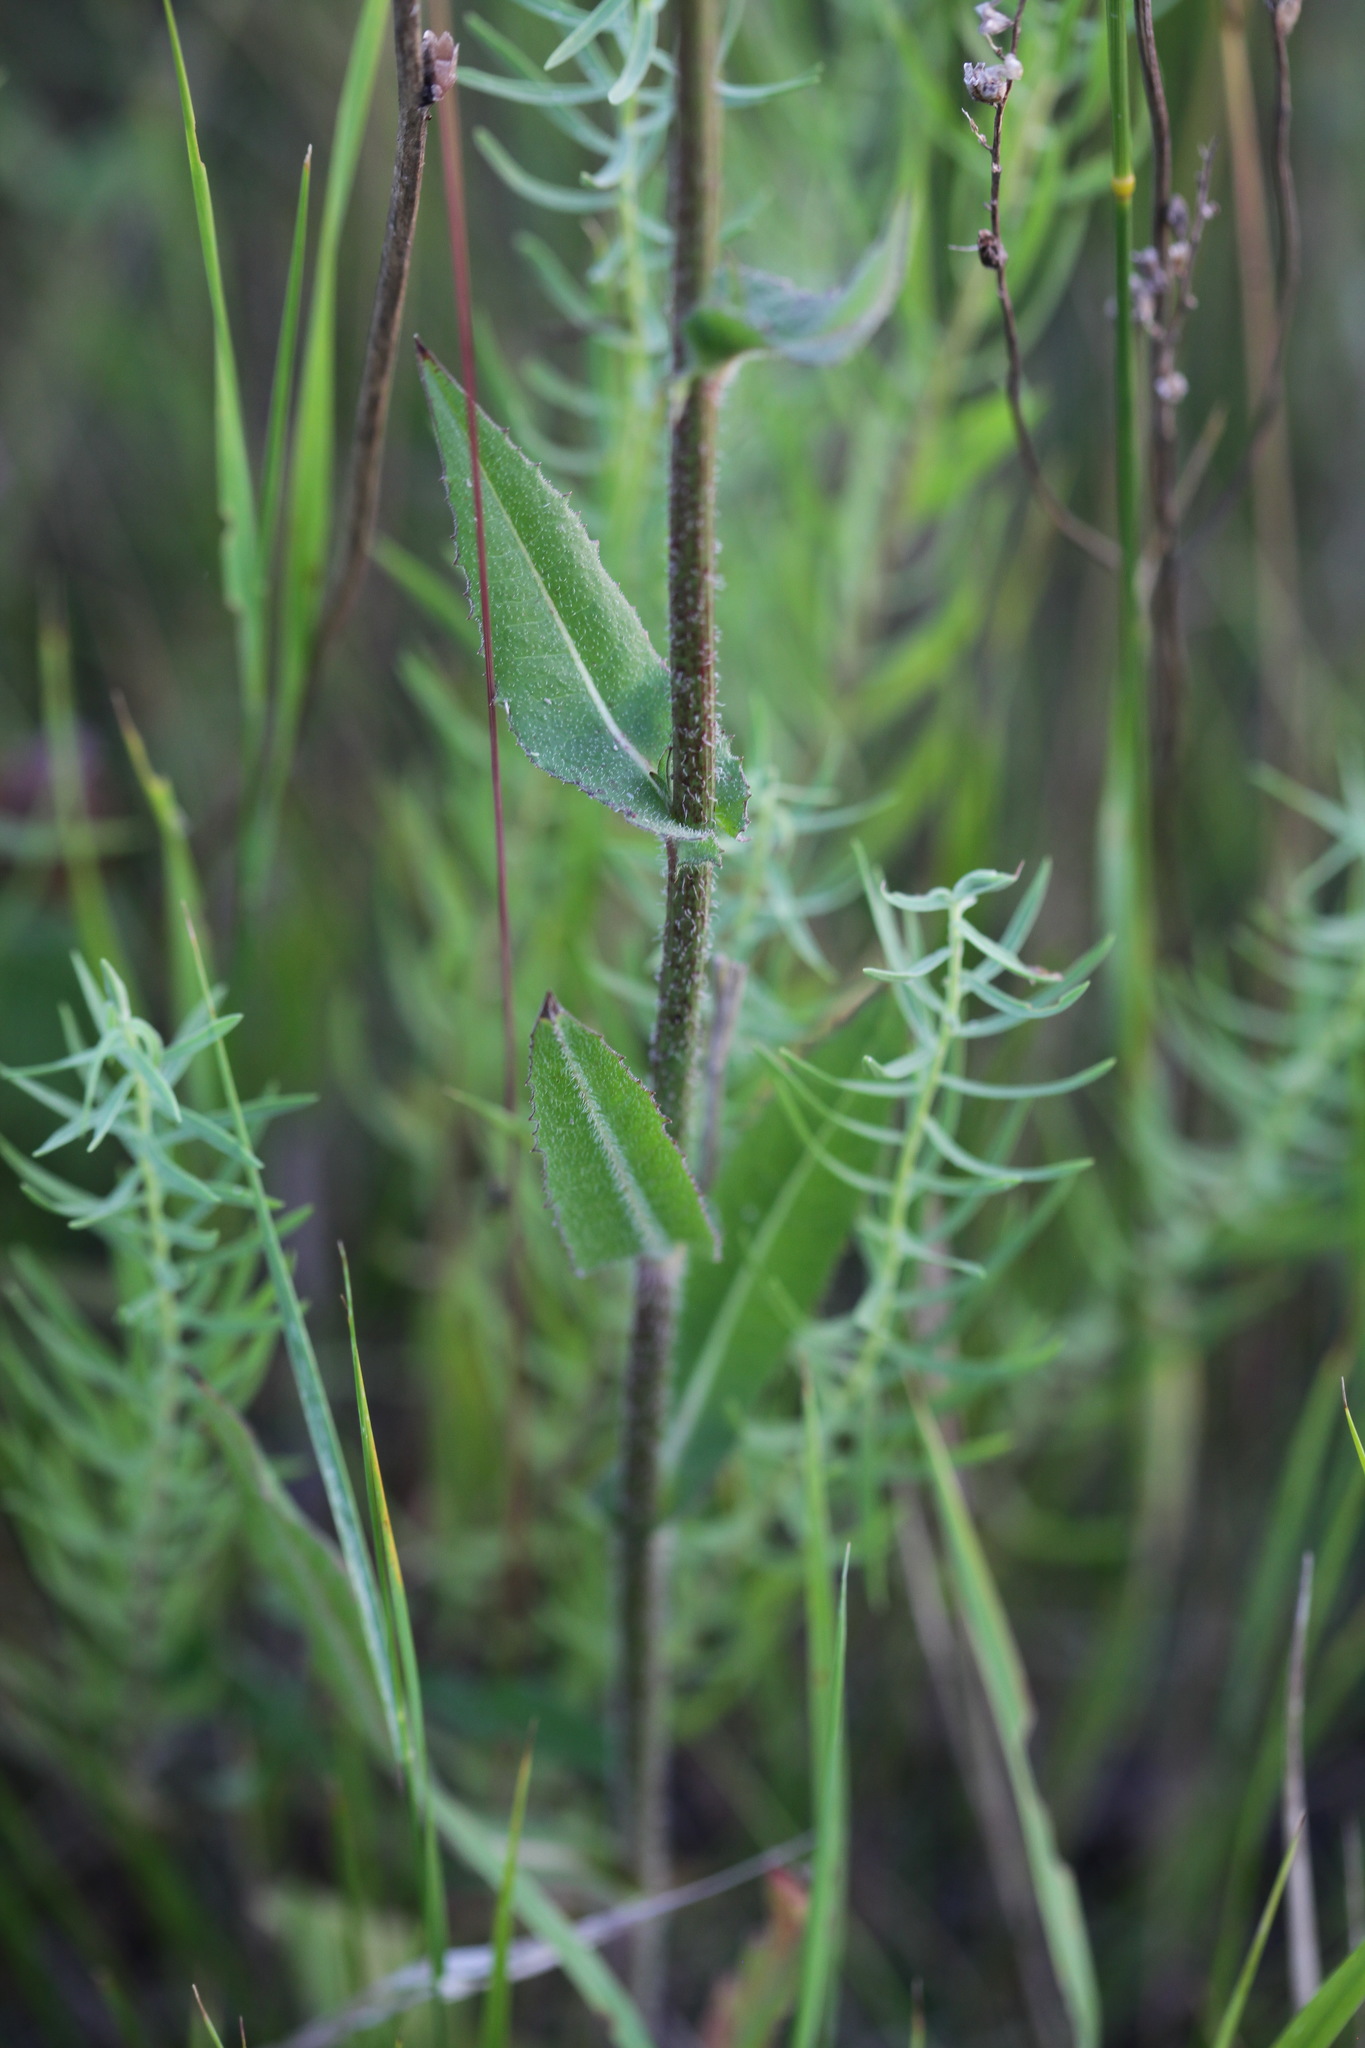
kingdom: Plantae
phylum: Tracheophyta
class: Magnoliopsida
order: Asterales
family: Asteraceae
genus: Cichorium
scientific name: Cichorium intybus
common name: Chicory
